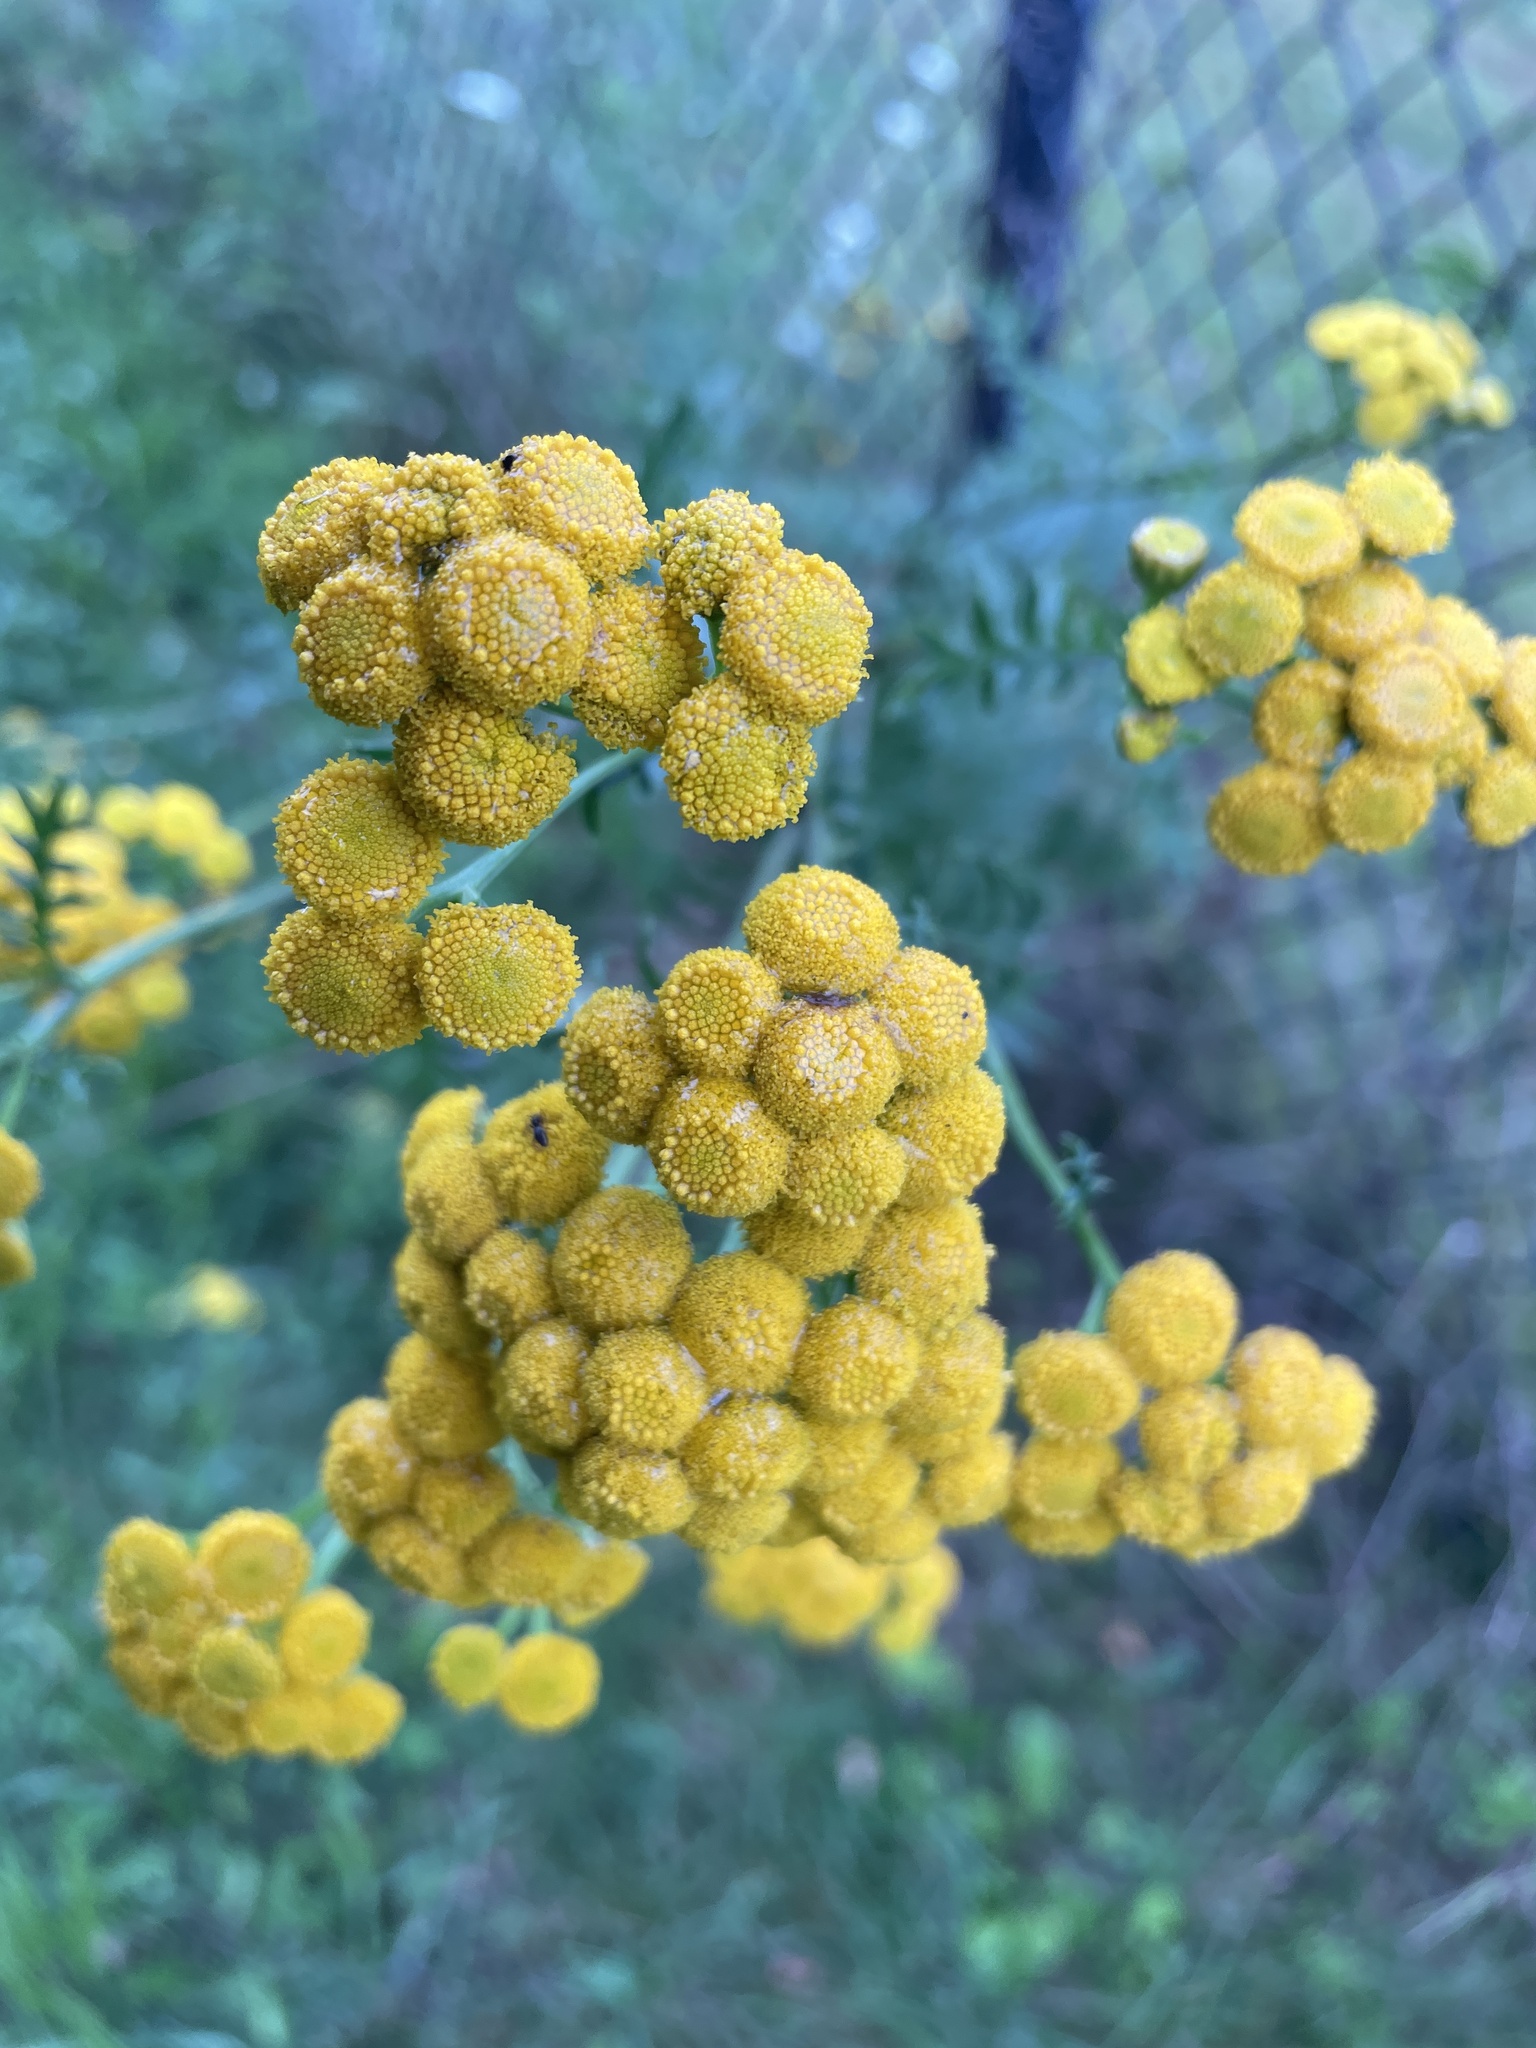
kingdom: Plantae
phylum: Tracheophyta
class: Magnoliopsida
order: Asterales
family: Asteraceae
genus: Tanacetum
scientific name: Tanacetum vulgare
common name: Common tansy
